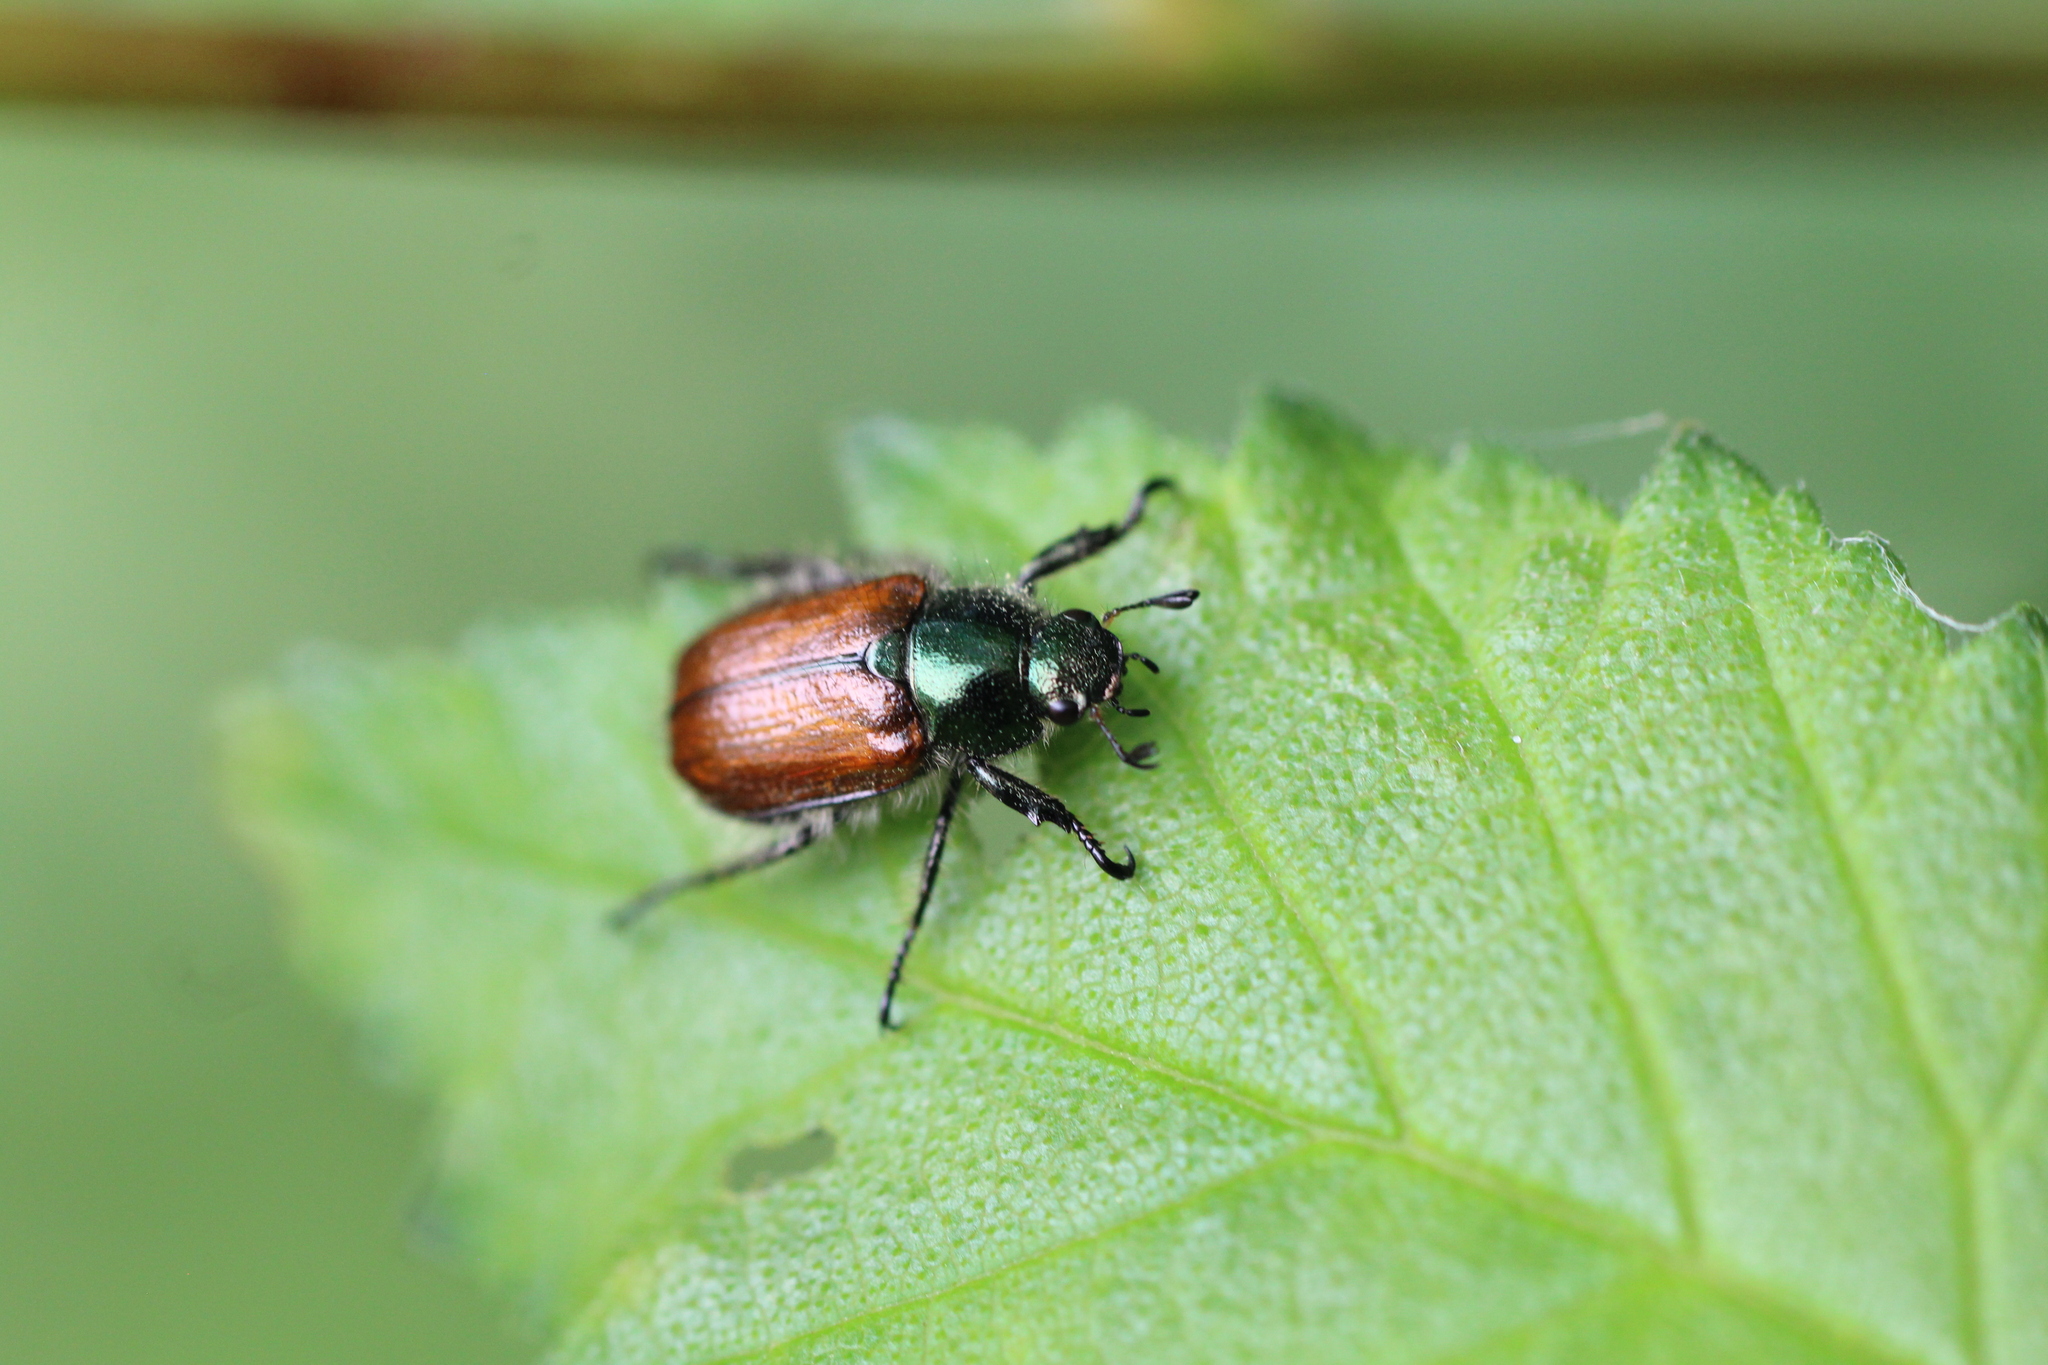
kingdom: Animalia
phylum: Arthropoda
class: Insecta
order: Coleoptera
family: Scarabaeidae
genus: Phyllopertha
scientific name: Phyllopertha horticola
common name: Garden chafer
